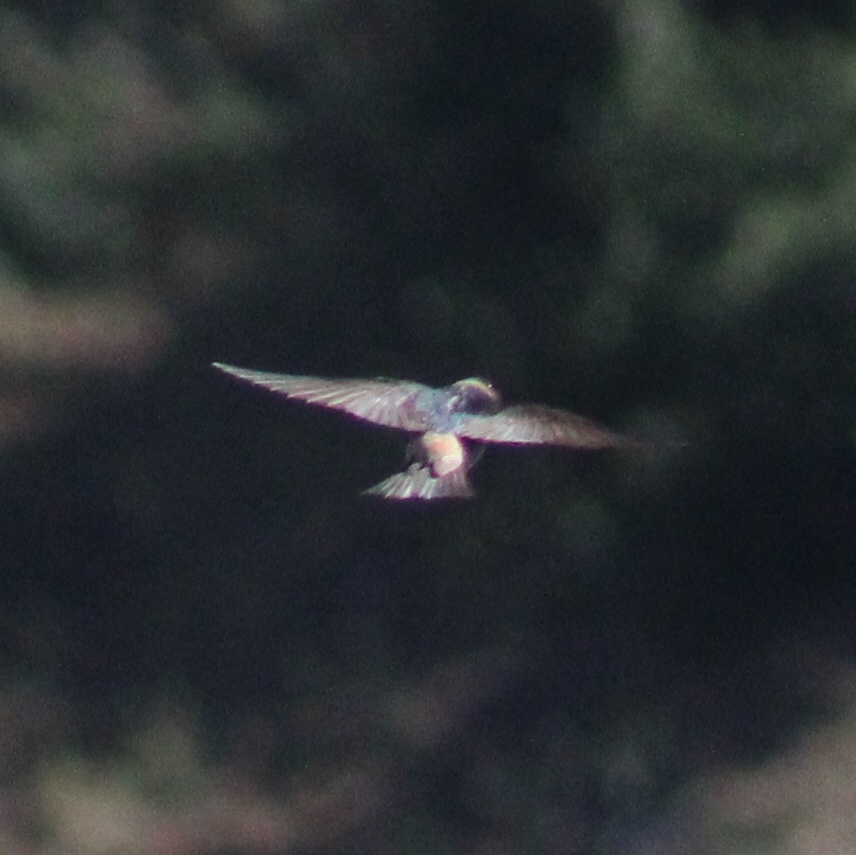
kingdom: Animalia
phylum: Chordata
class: Aves
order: Passeriformes
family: Hirundinidae
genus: Petrochelidon
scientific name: Petrochelidon pyrrhonota
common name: American cliff swallow
